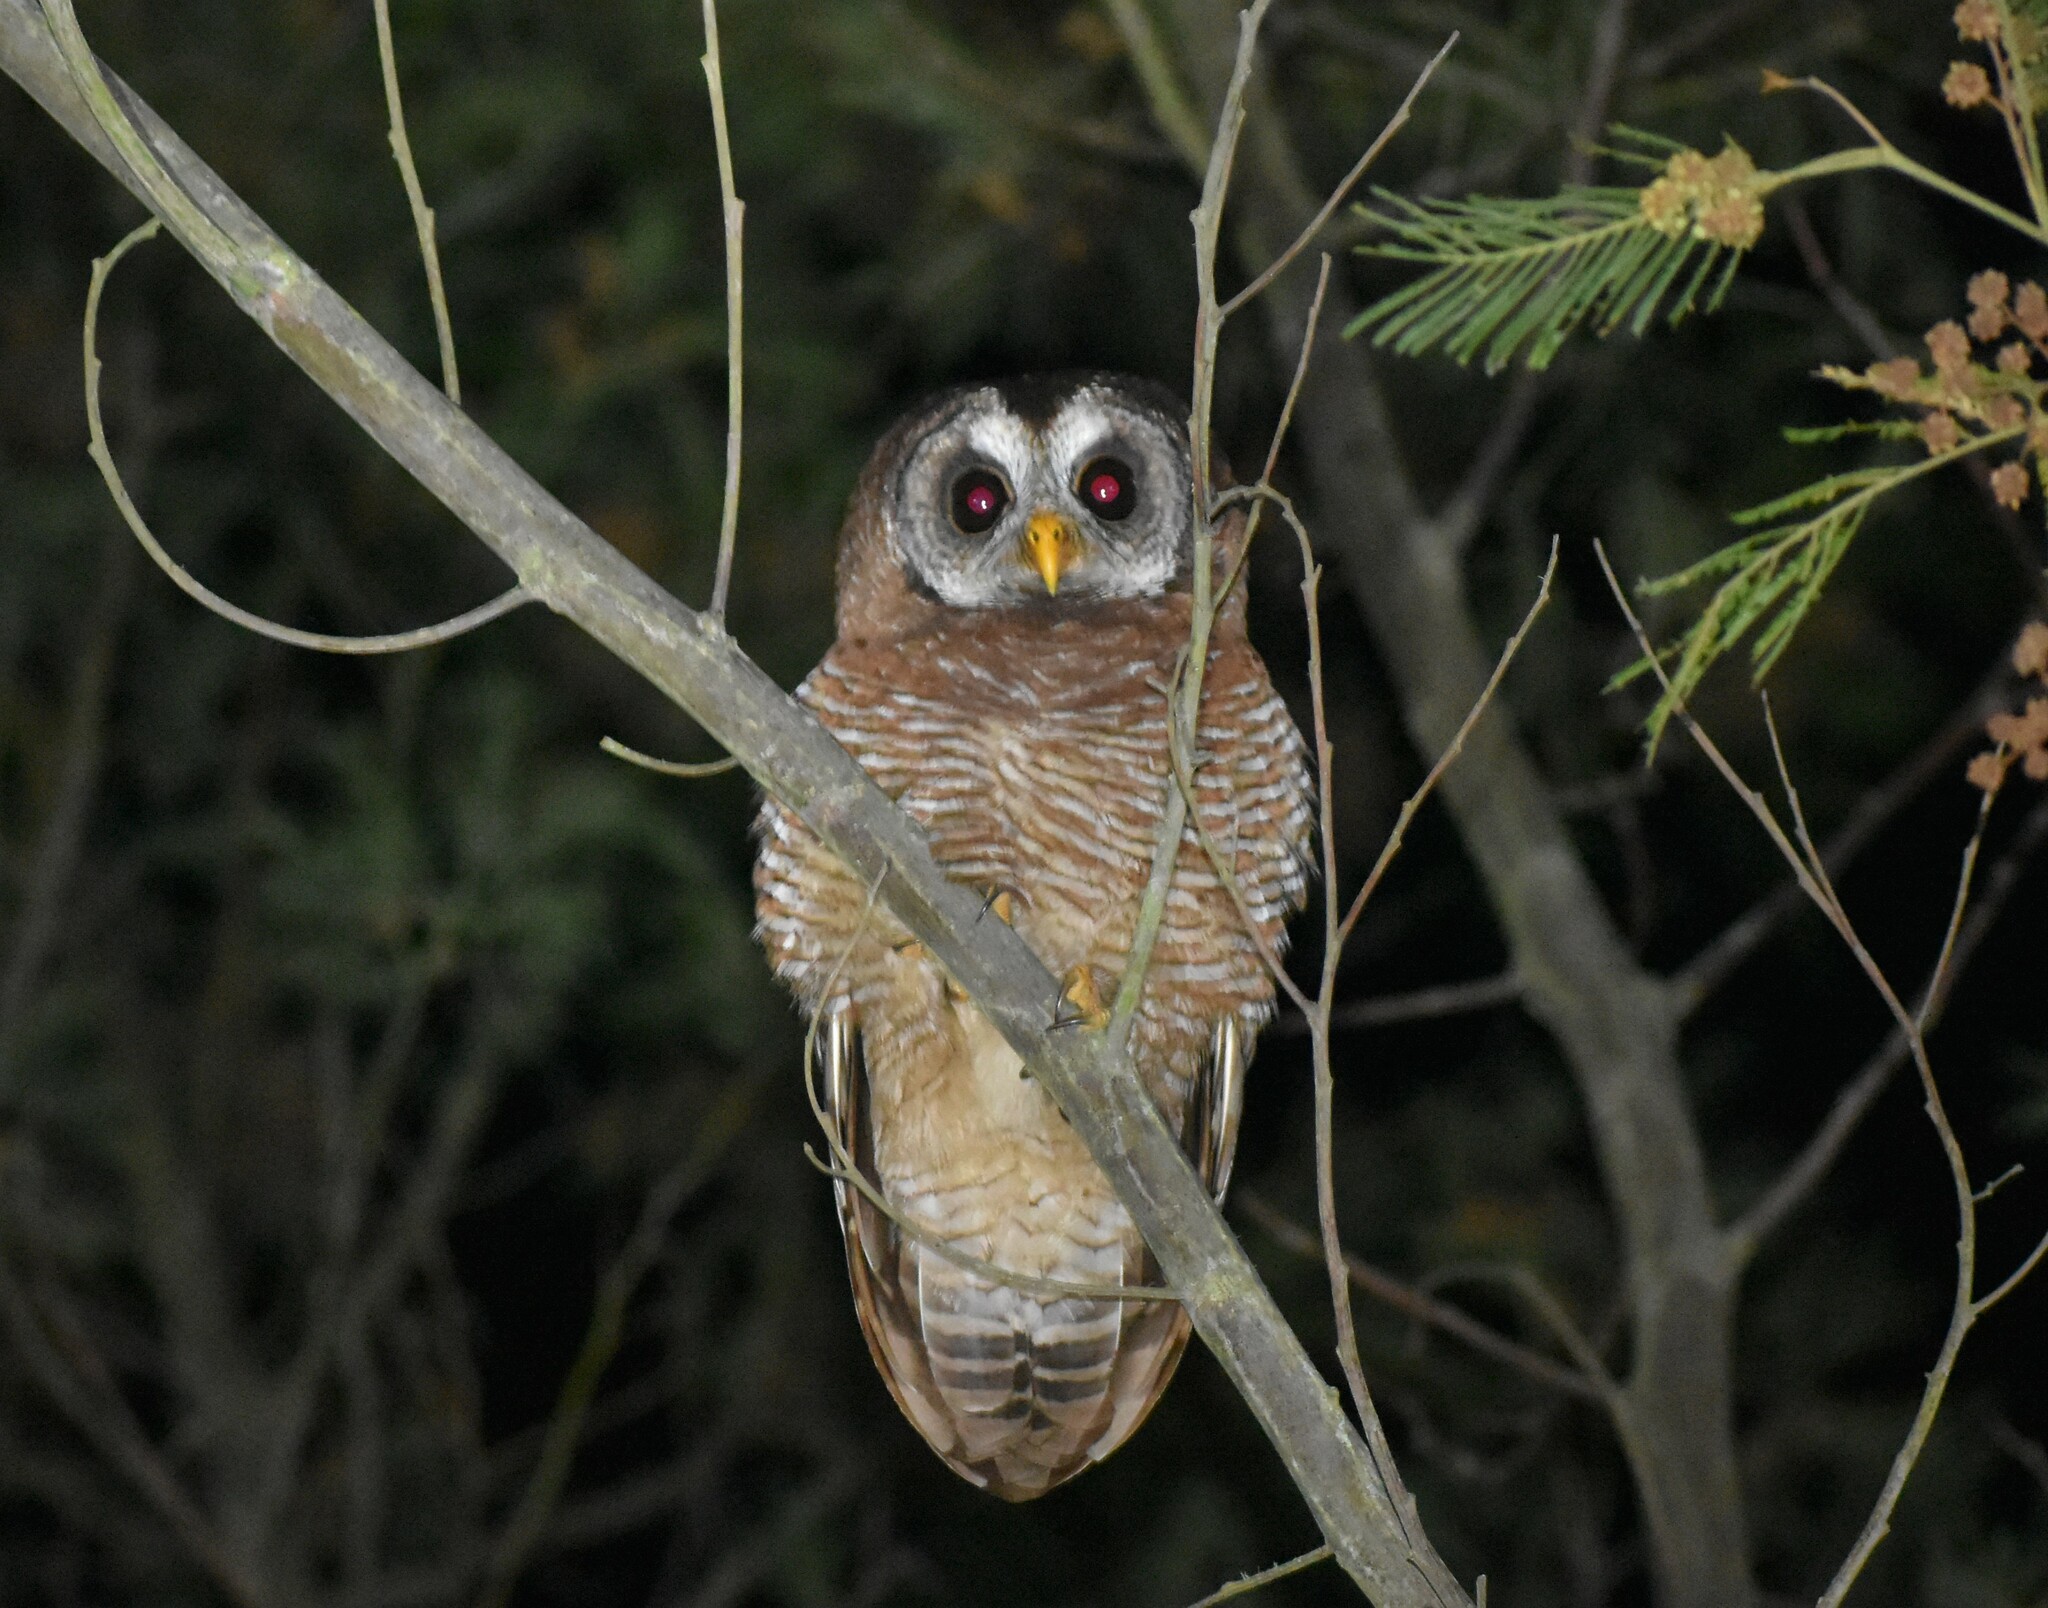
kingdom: Animalia
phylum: Chordata
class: Aves
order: Strigiformes
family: Strigidae
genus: Strix
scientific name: Strix woodfordii
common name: African wood owl
